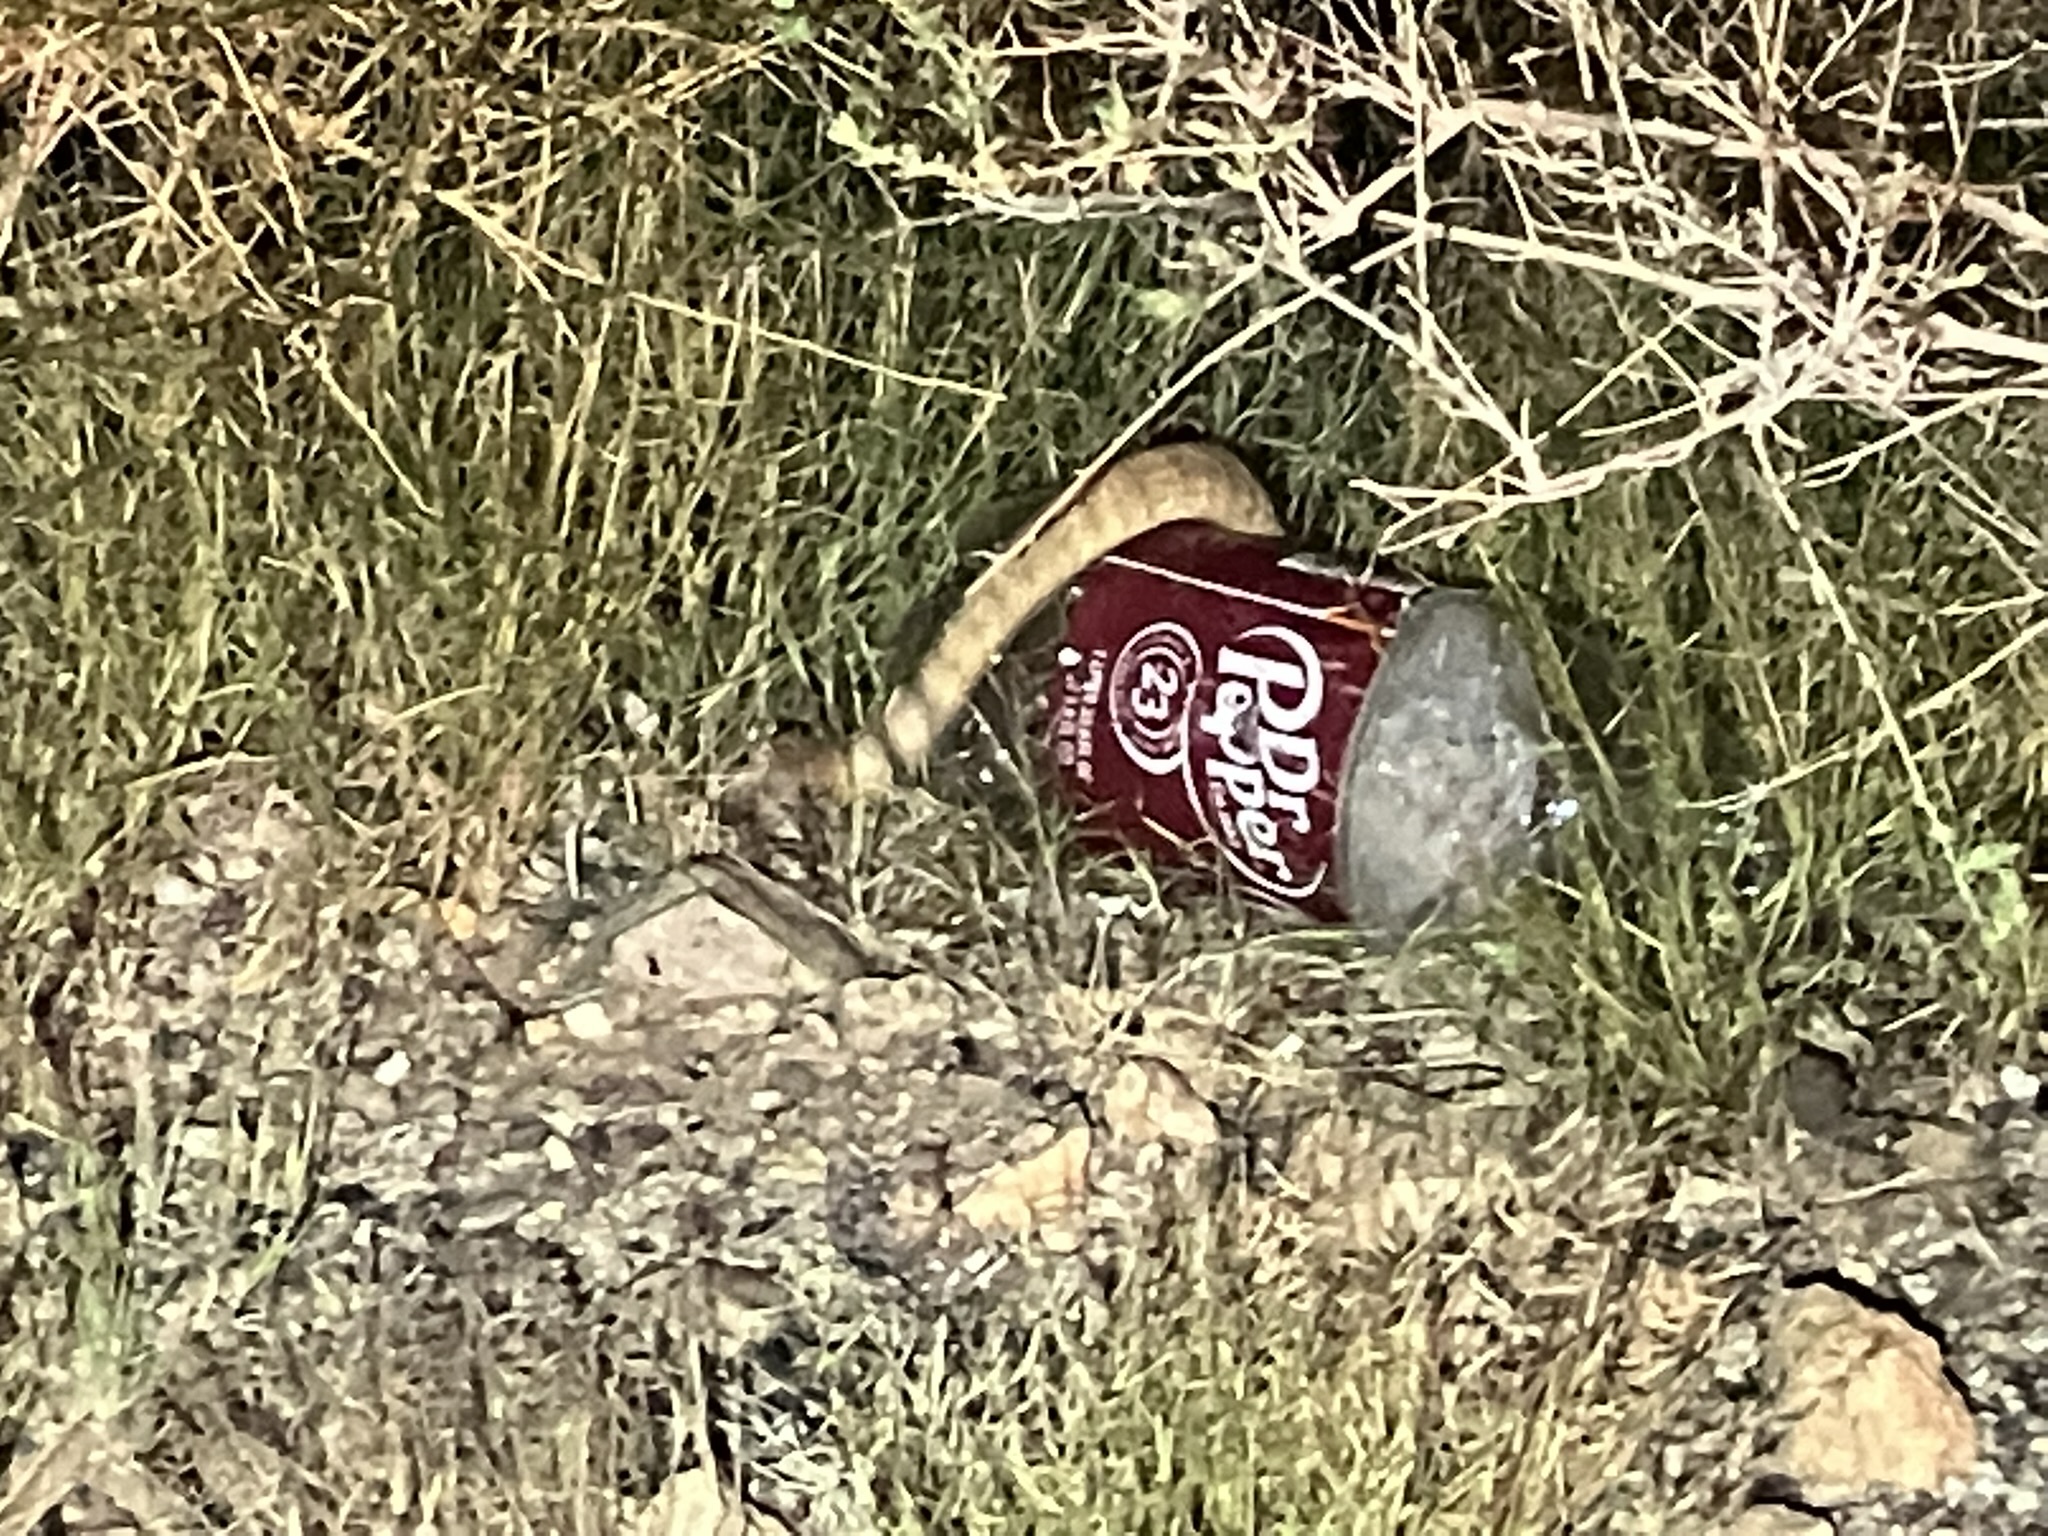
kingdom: Animalia
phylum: Chordata
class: Squamata
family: Viperidae
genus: Crotalus
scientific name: Crotalus scutulatus
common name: Scutulatus
